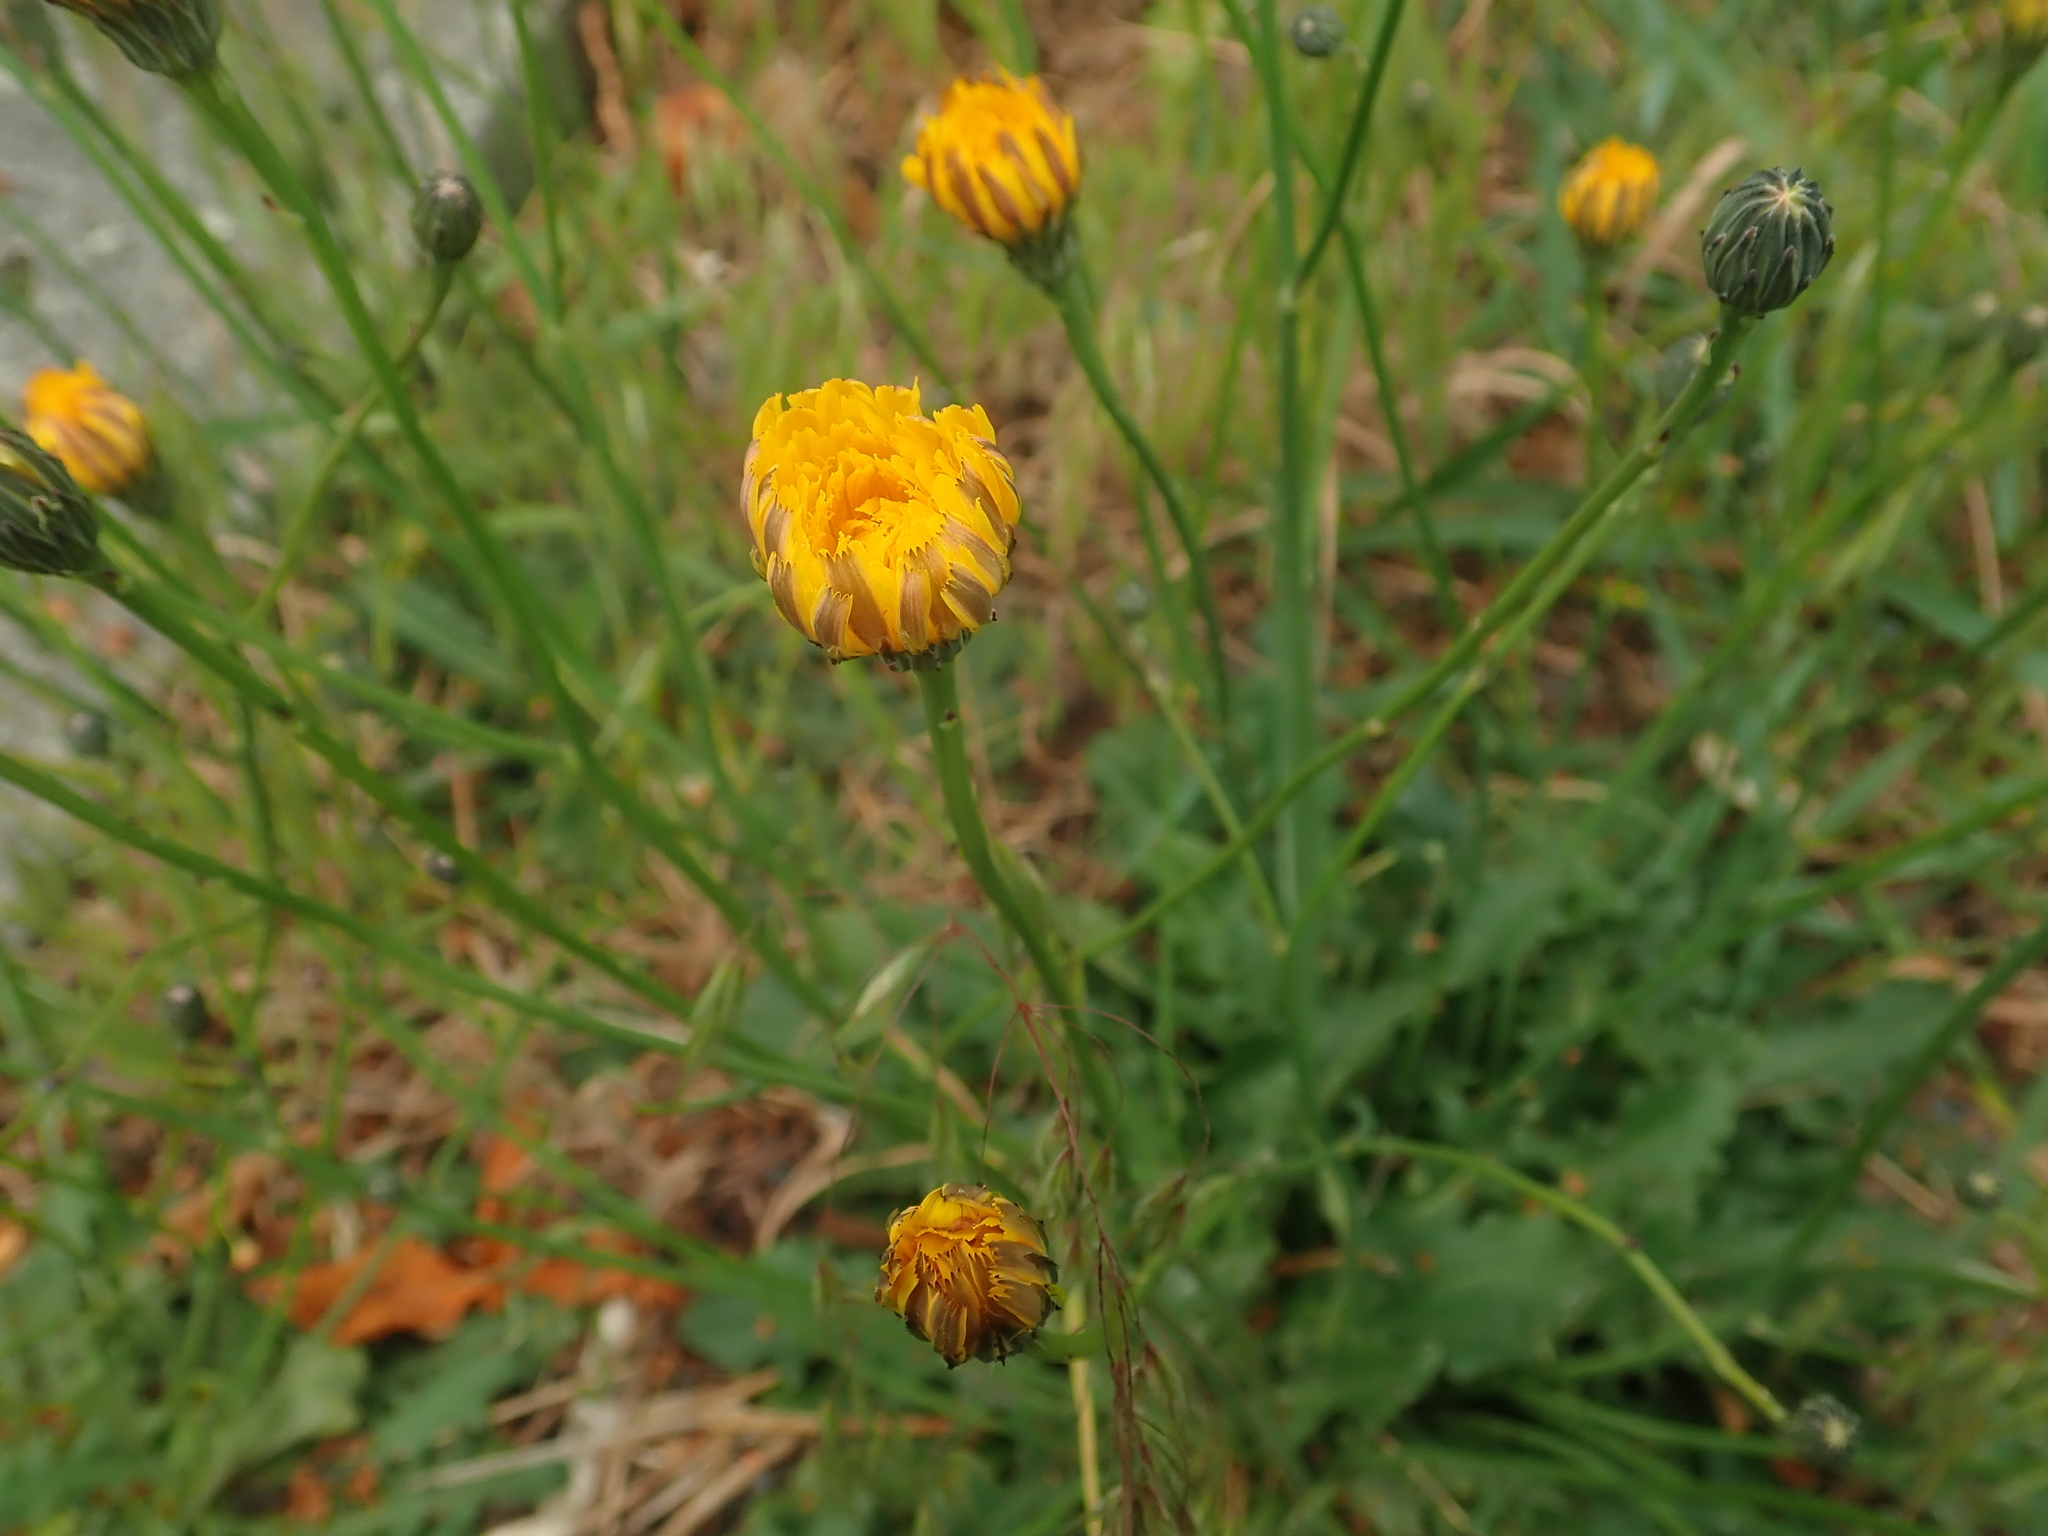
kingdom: Plantae
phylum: Tracheophyta
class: Magnoliopsida
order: Asterales
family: Asteraceae
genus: Hypochaeris
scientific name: Hypochaeris radicata
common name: Flatweed
